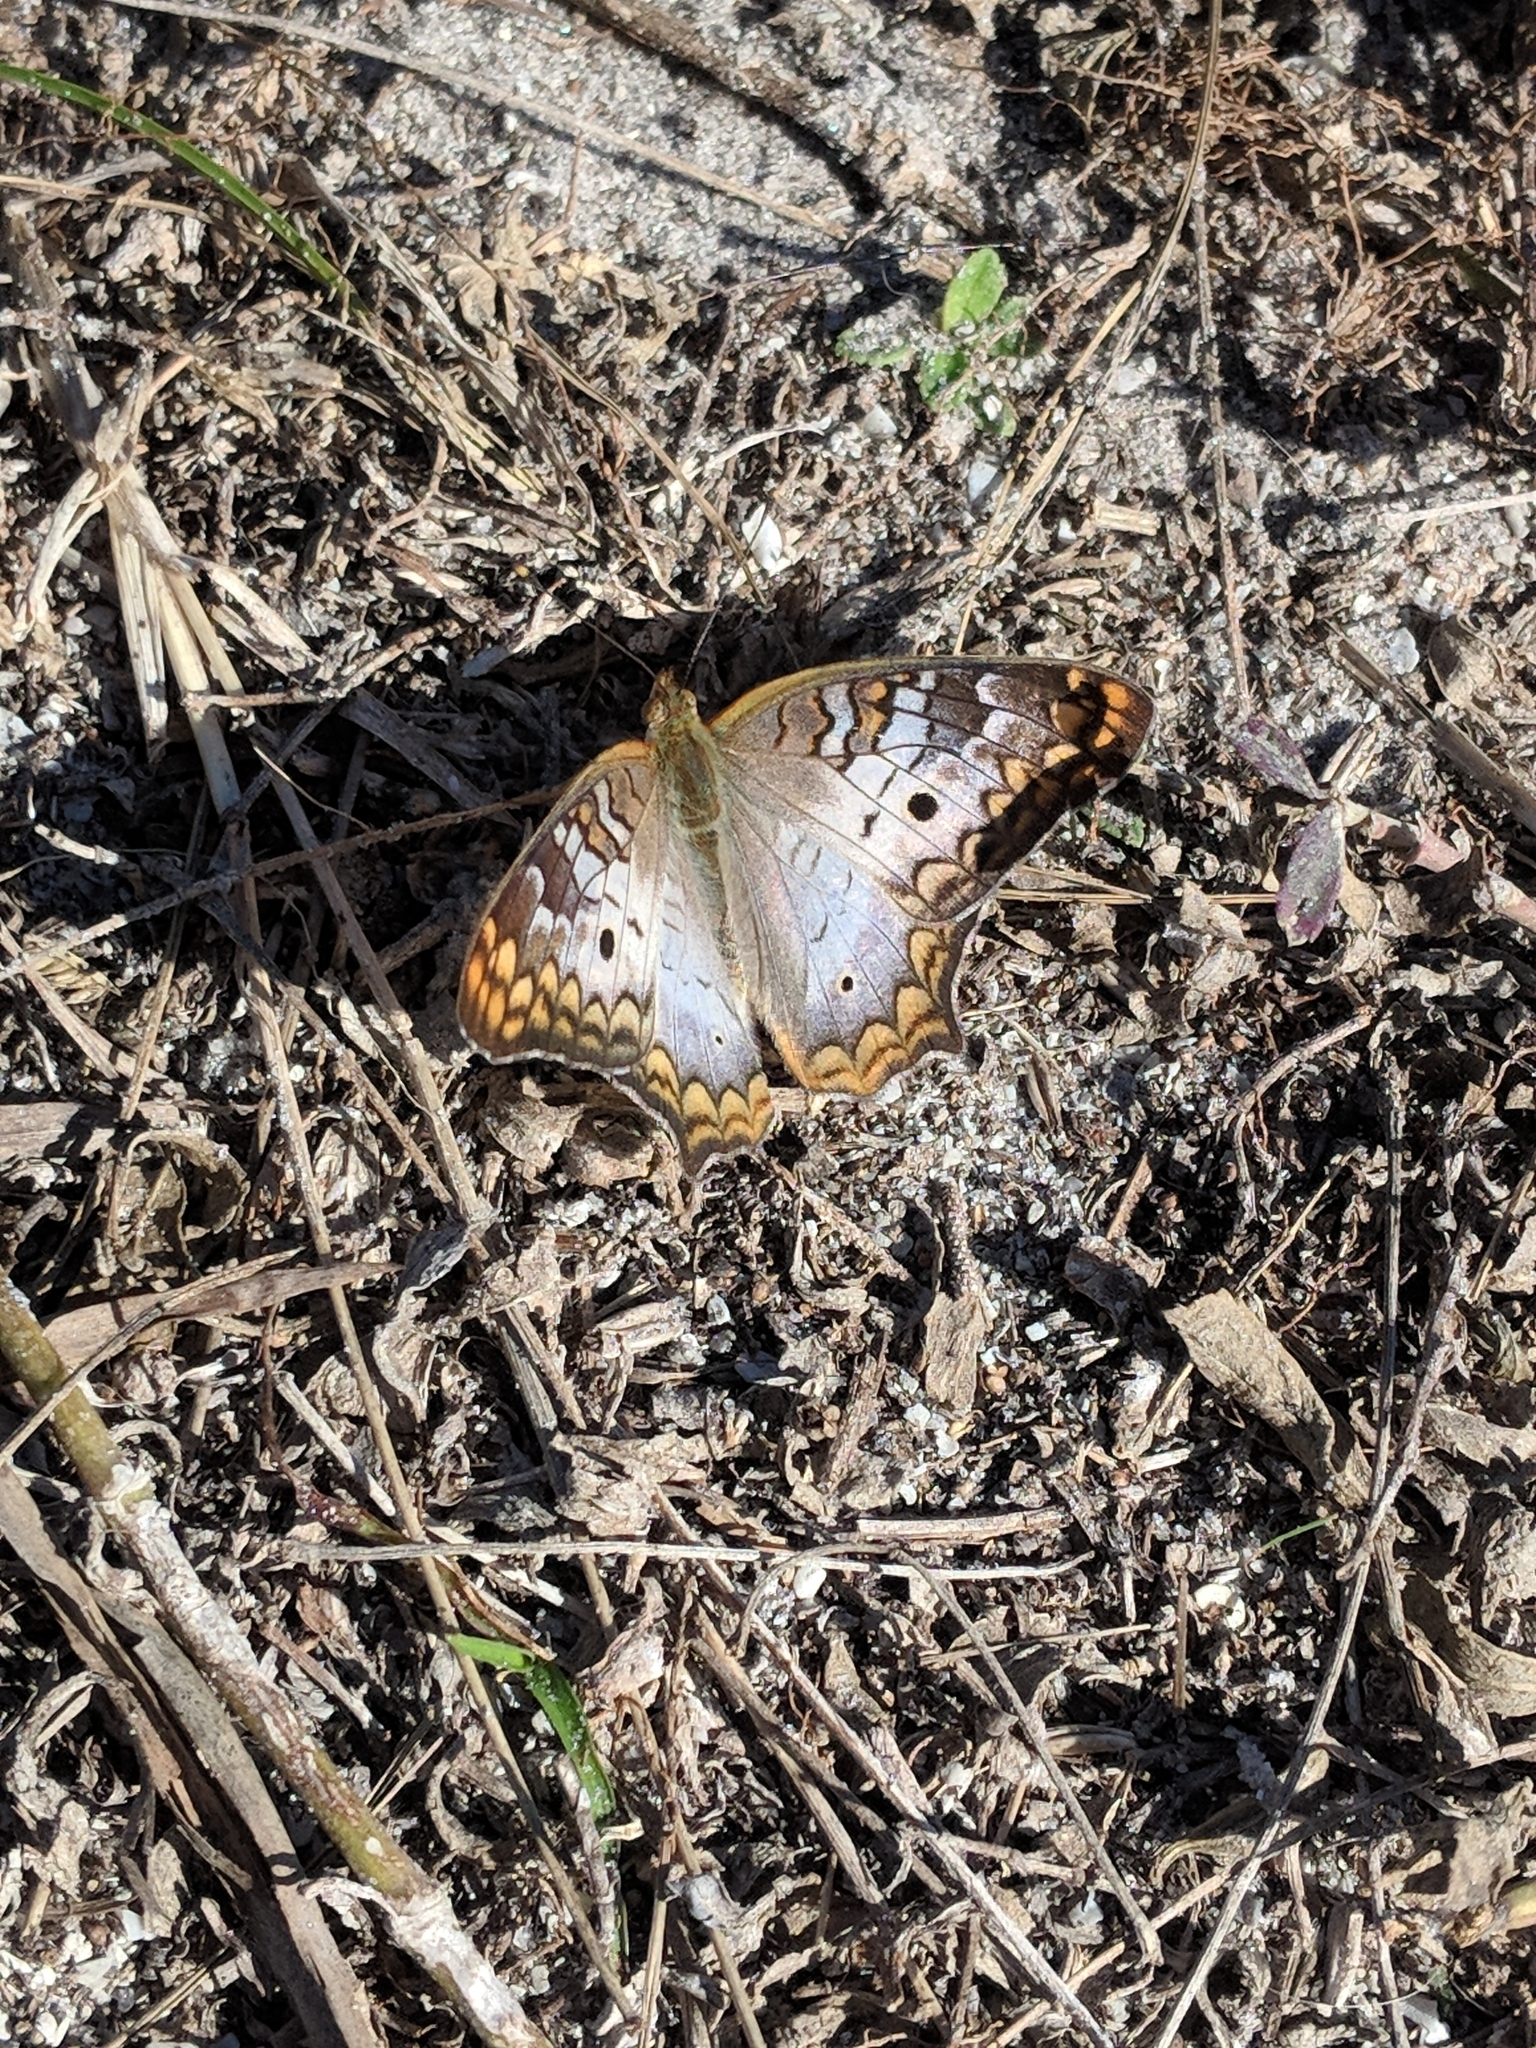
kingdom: Animalia
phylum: Arthropoda
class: Insecta
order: Lepidoptera
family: Nymphalidae
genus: Anartia
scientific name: Anartia jatrophae
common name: White peacock
